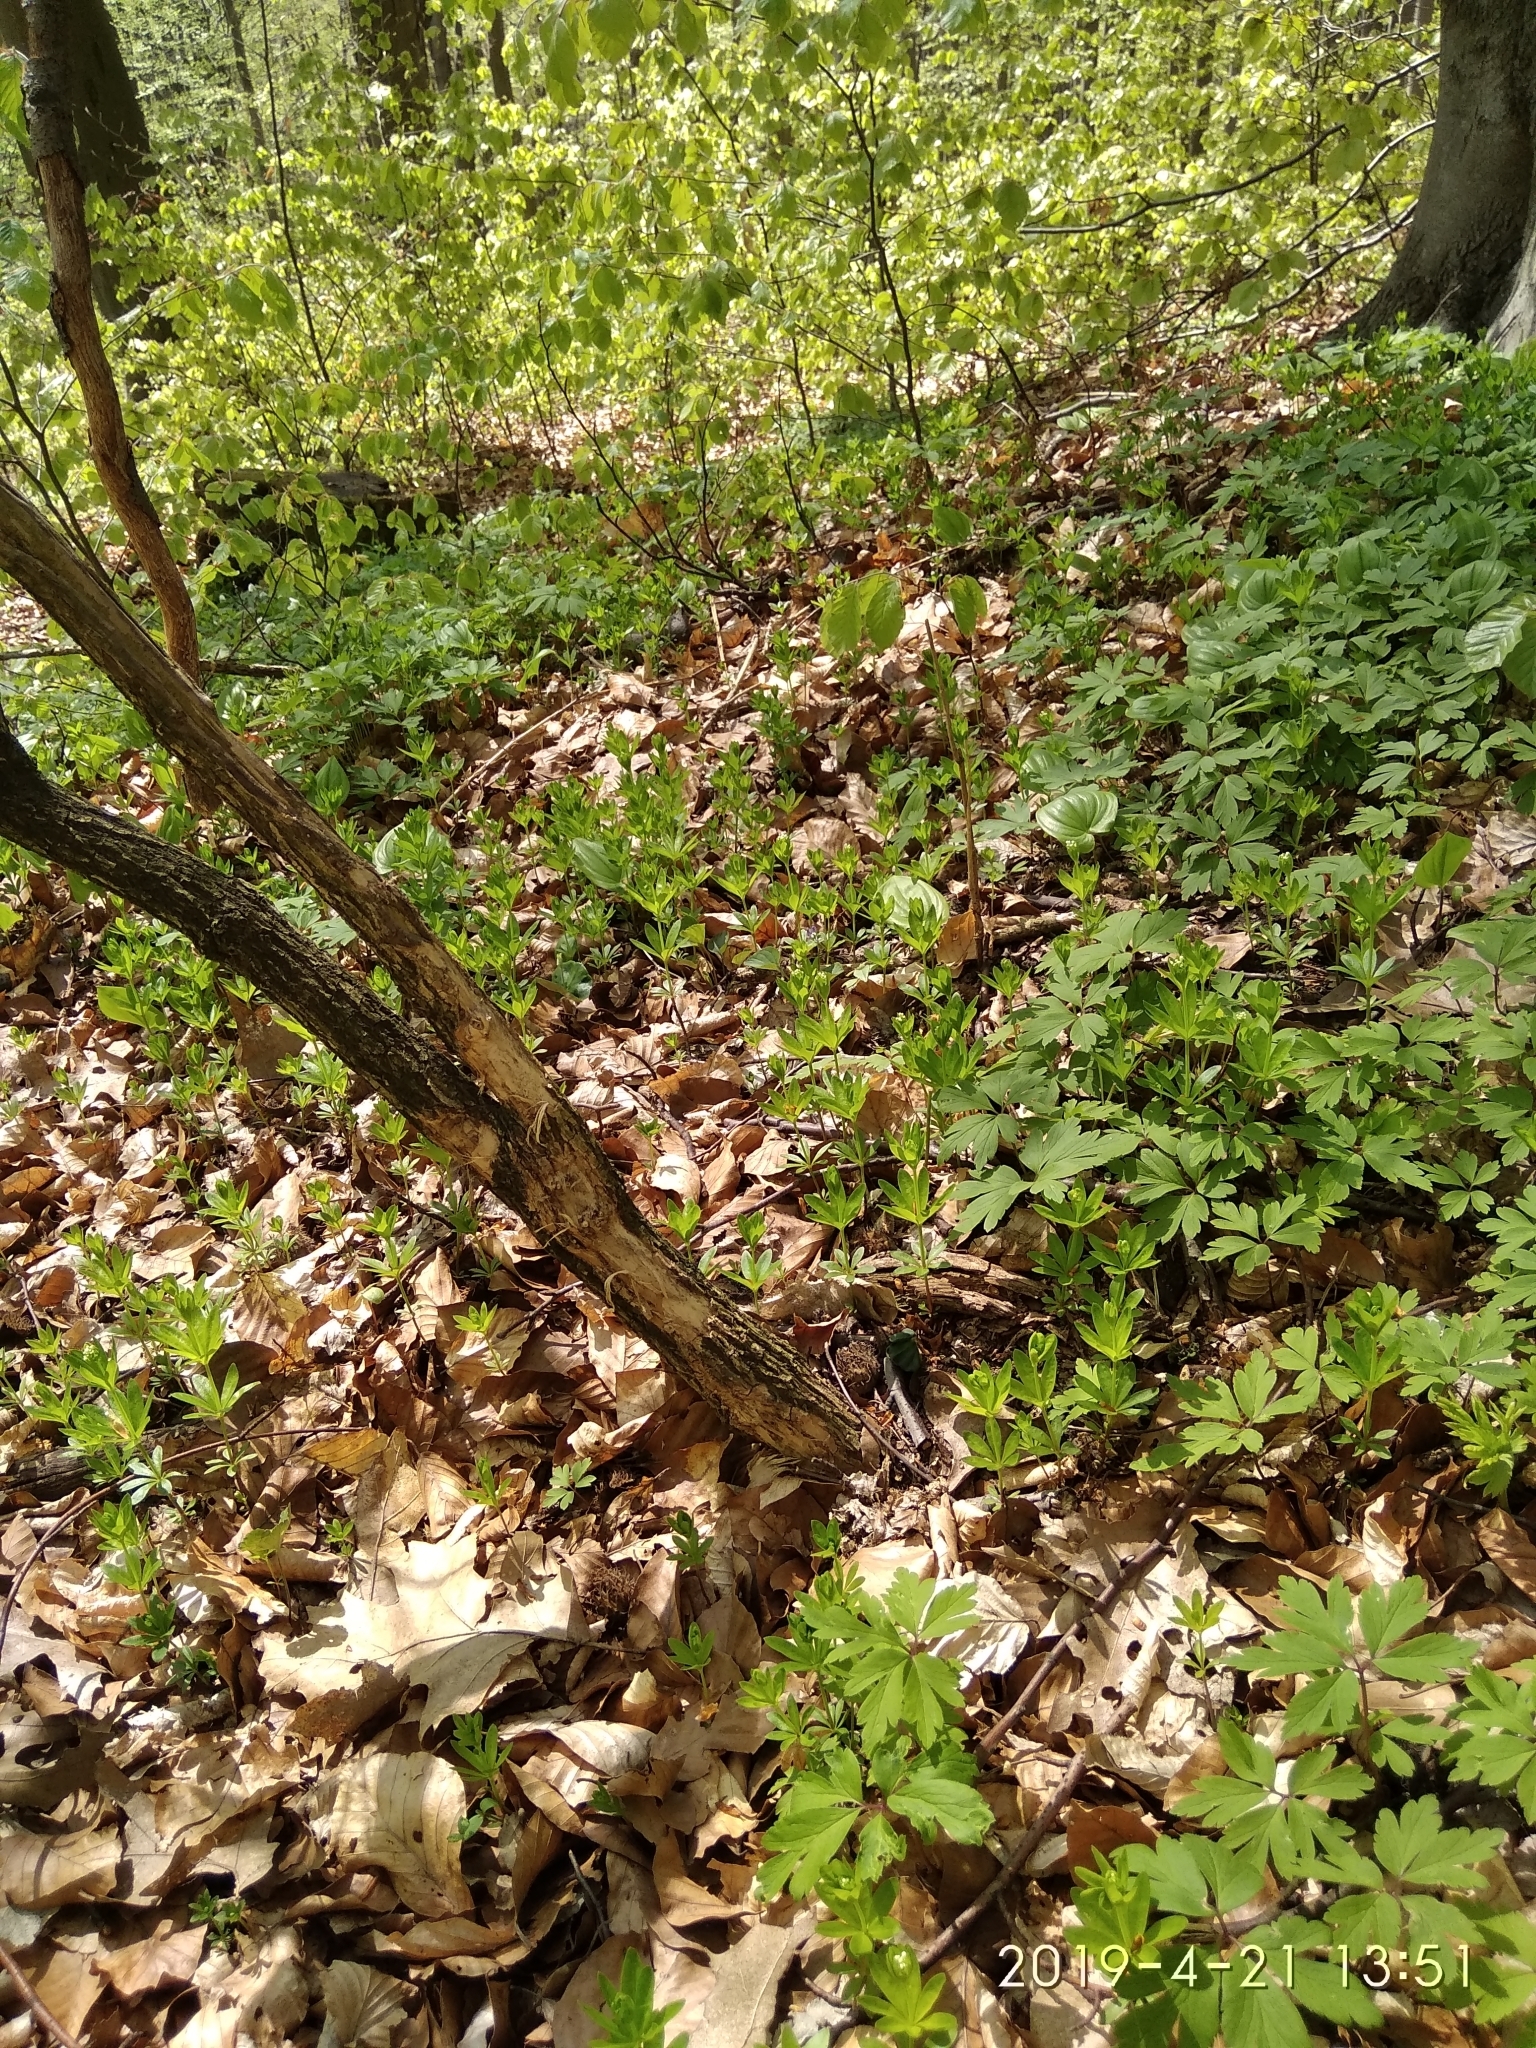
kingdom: Plantae
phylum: Tracheophyta
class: Magnoliopsida
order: Gentianales
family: Rubiaceae
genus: Galium
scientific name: Galium odoratum
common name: Sweet woodruff
